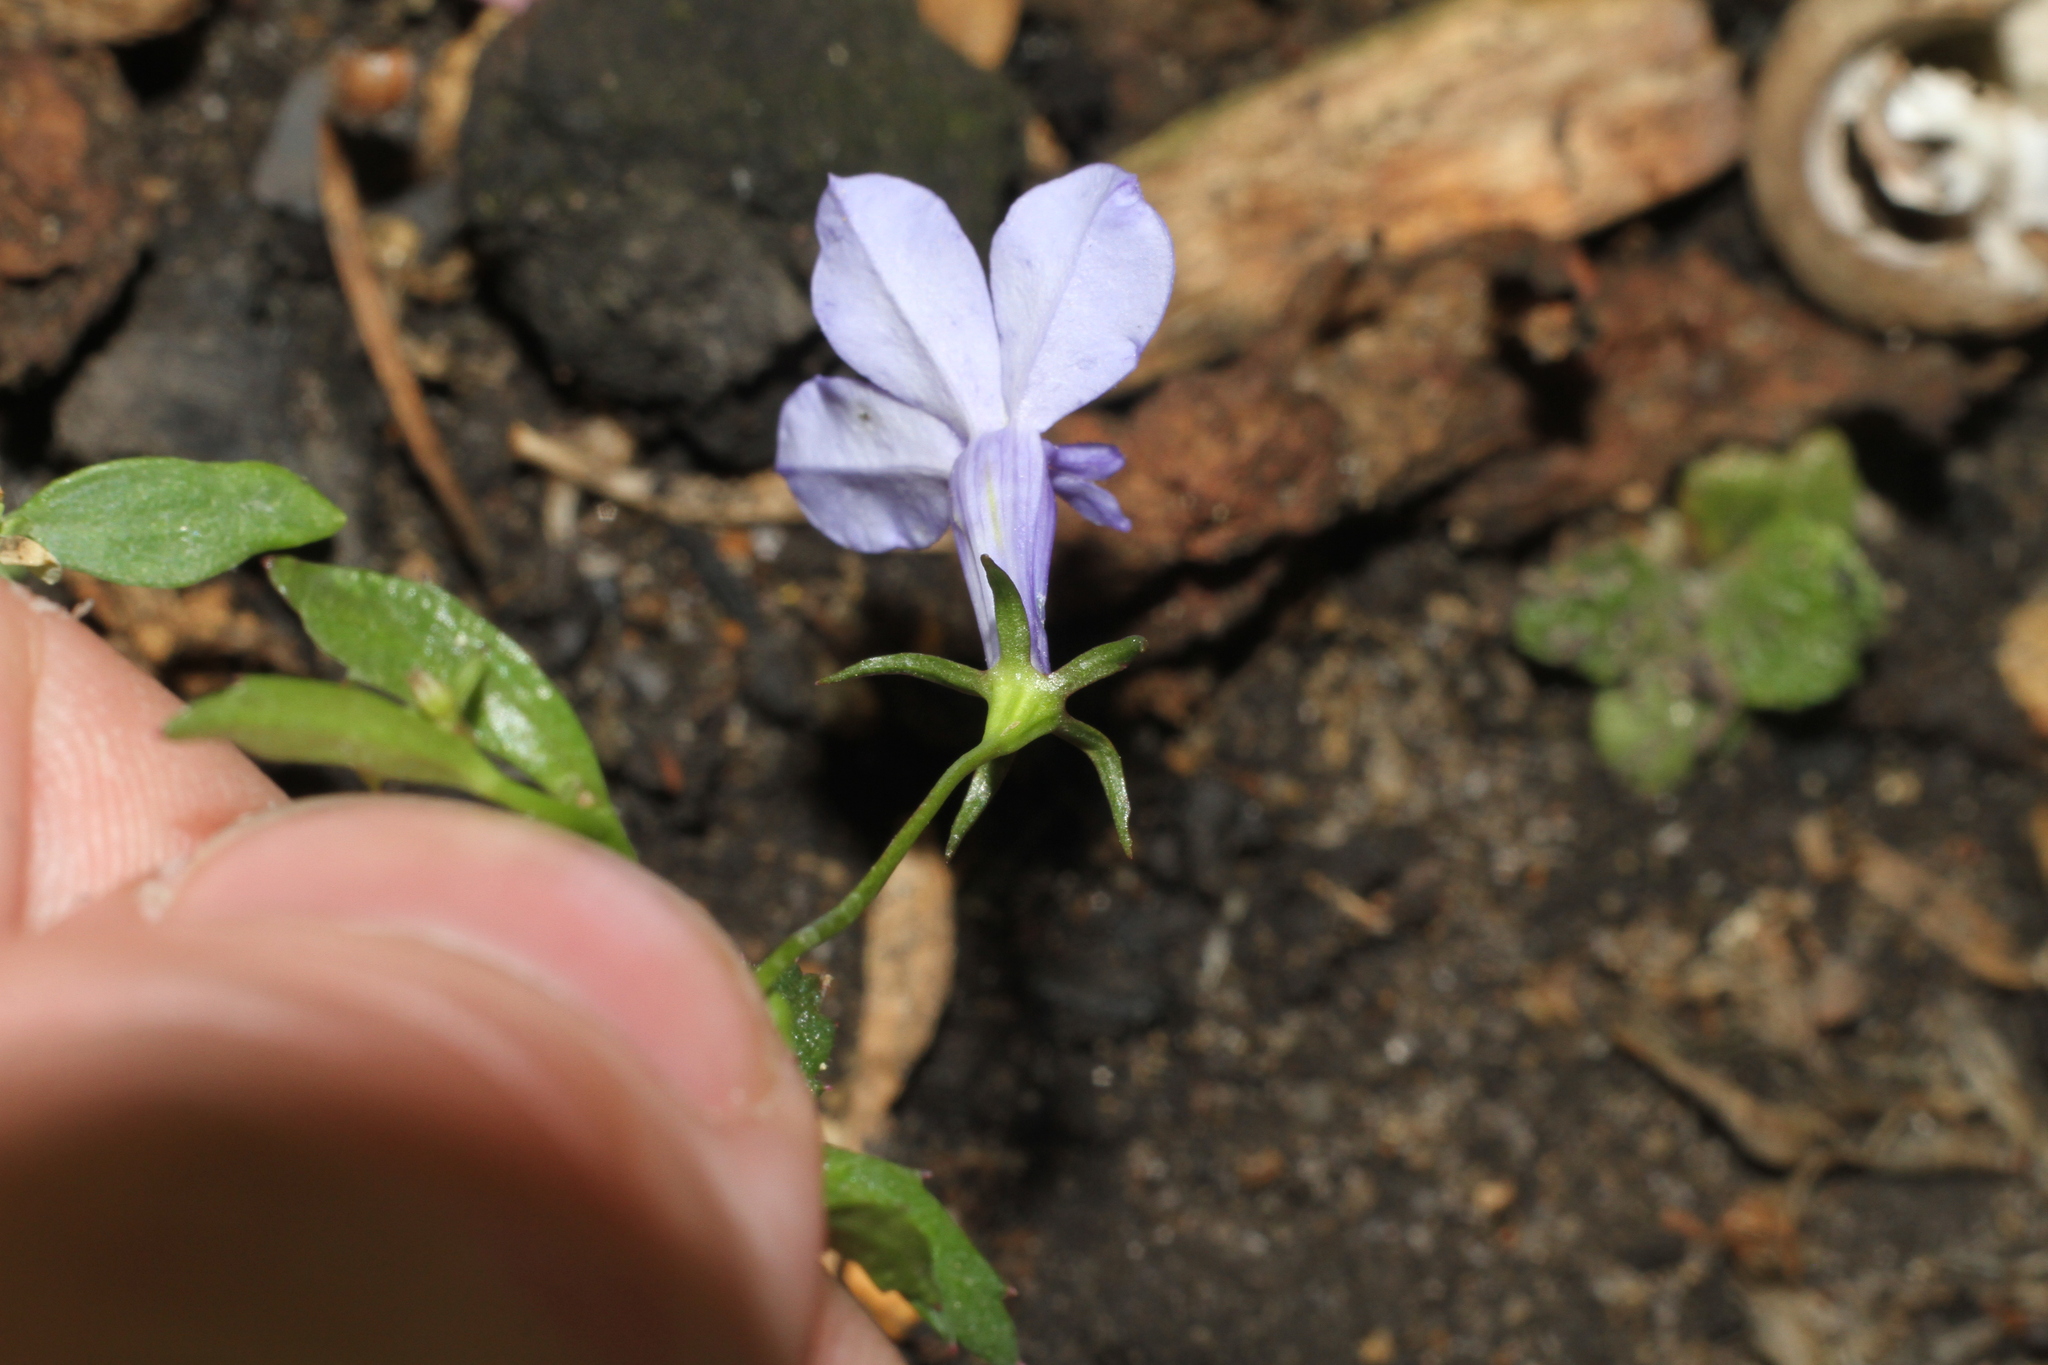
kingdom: Plantae
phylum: Tracheophyta
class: Magnoliopsida
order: Asterales
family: Campanulaceae
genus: Lobelia
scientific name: Lobelia erinus
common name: Edging lobelia
